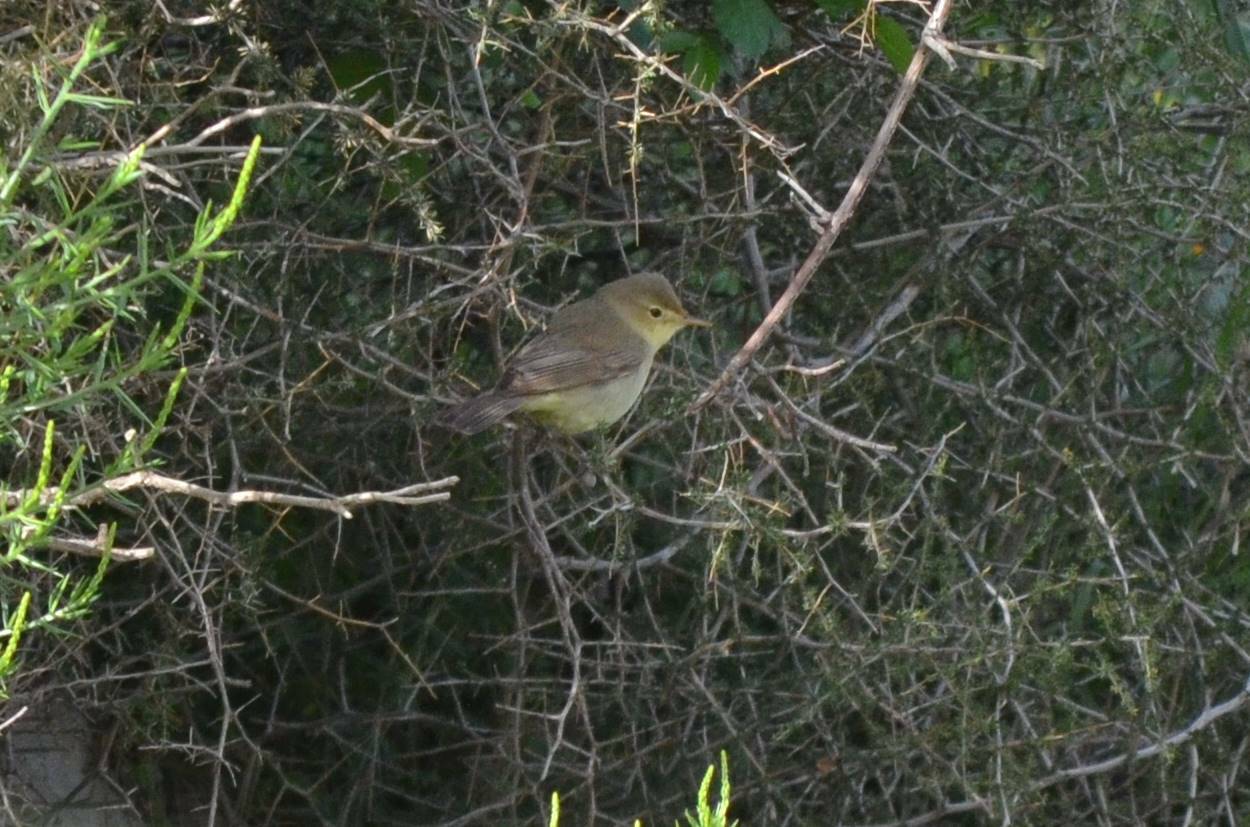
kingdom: Animalia
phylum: Chordata
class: Aves
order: Passeriformes
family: Acrocephalidae
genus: Hippolais
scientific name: Hippolais polyglotta
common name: Melodious warbler
